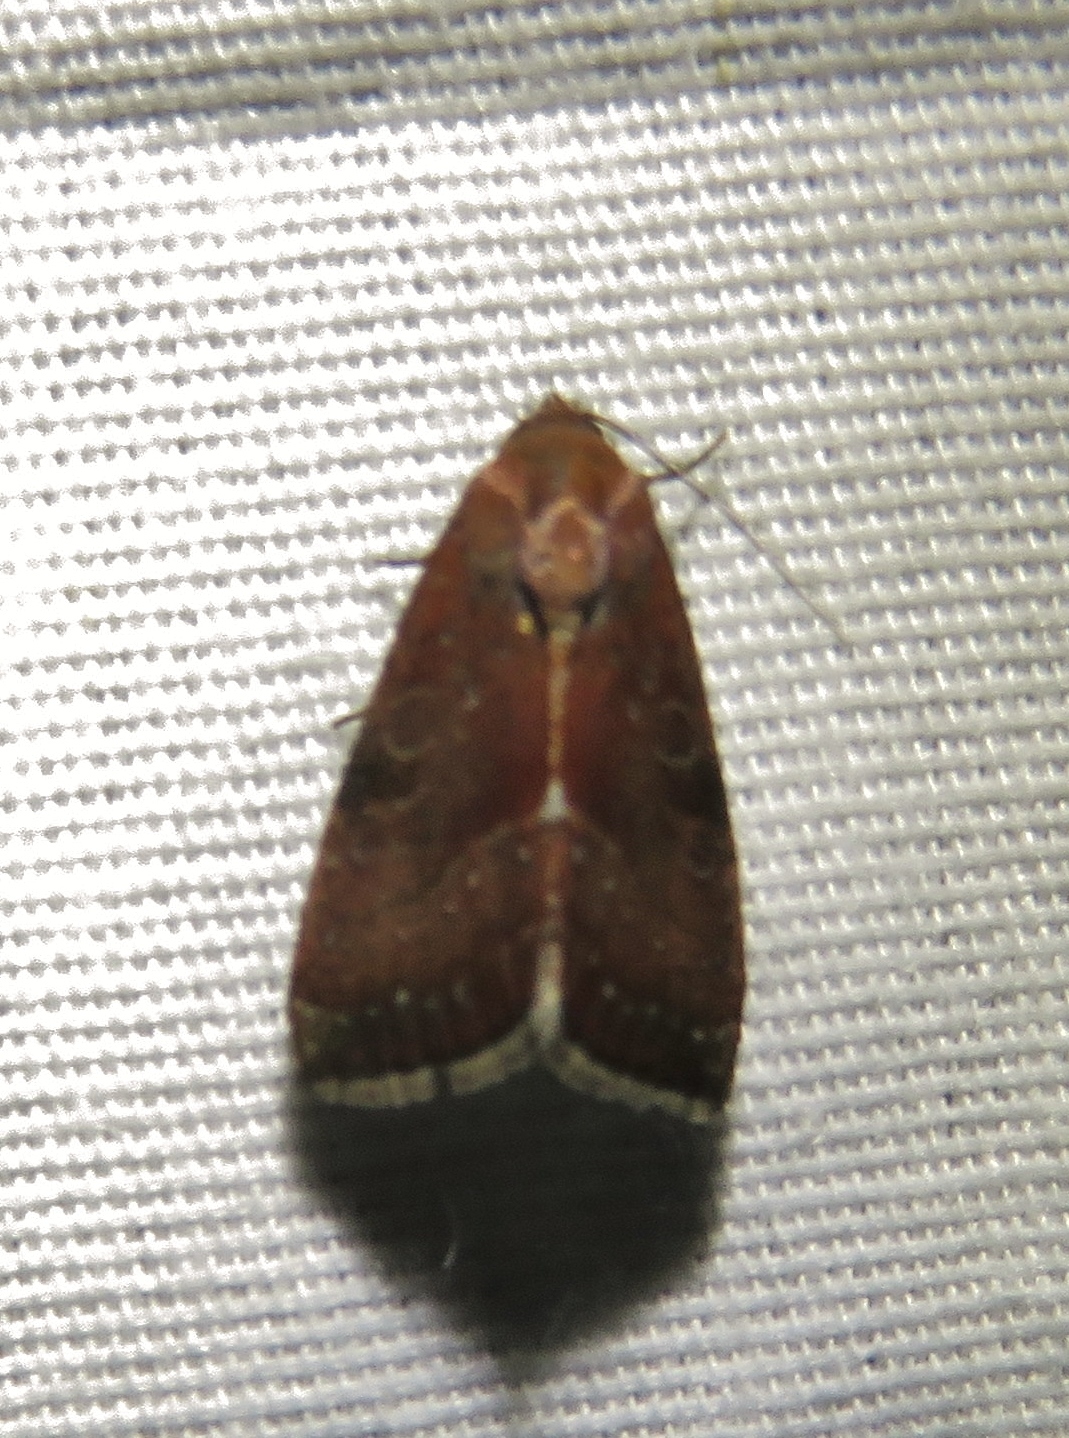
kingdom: Animalia
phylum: Arthropoda
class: Insecta
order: Lepidoptera
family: Noctuidae
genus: Galgula
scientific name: Galgula partita
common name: Wedgeling
